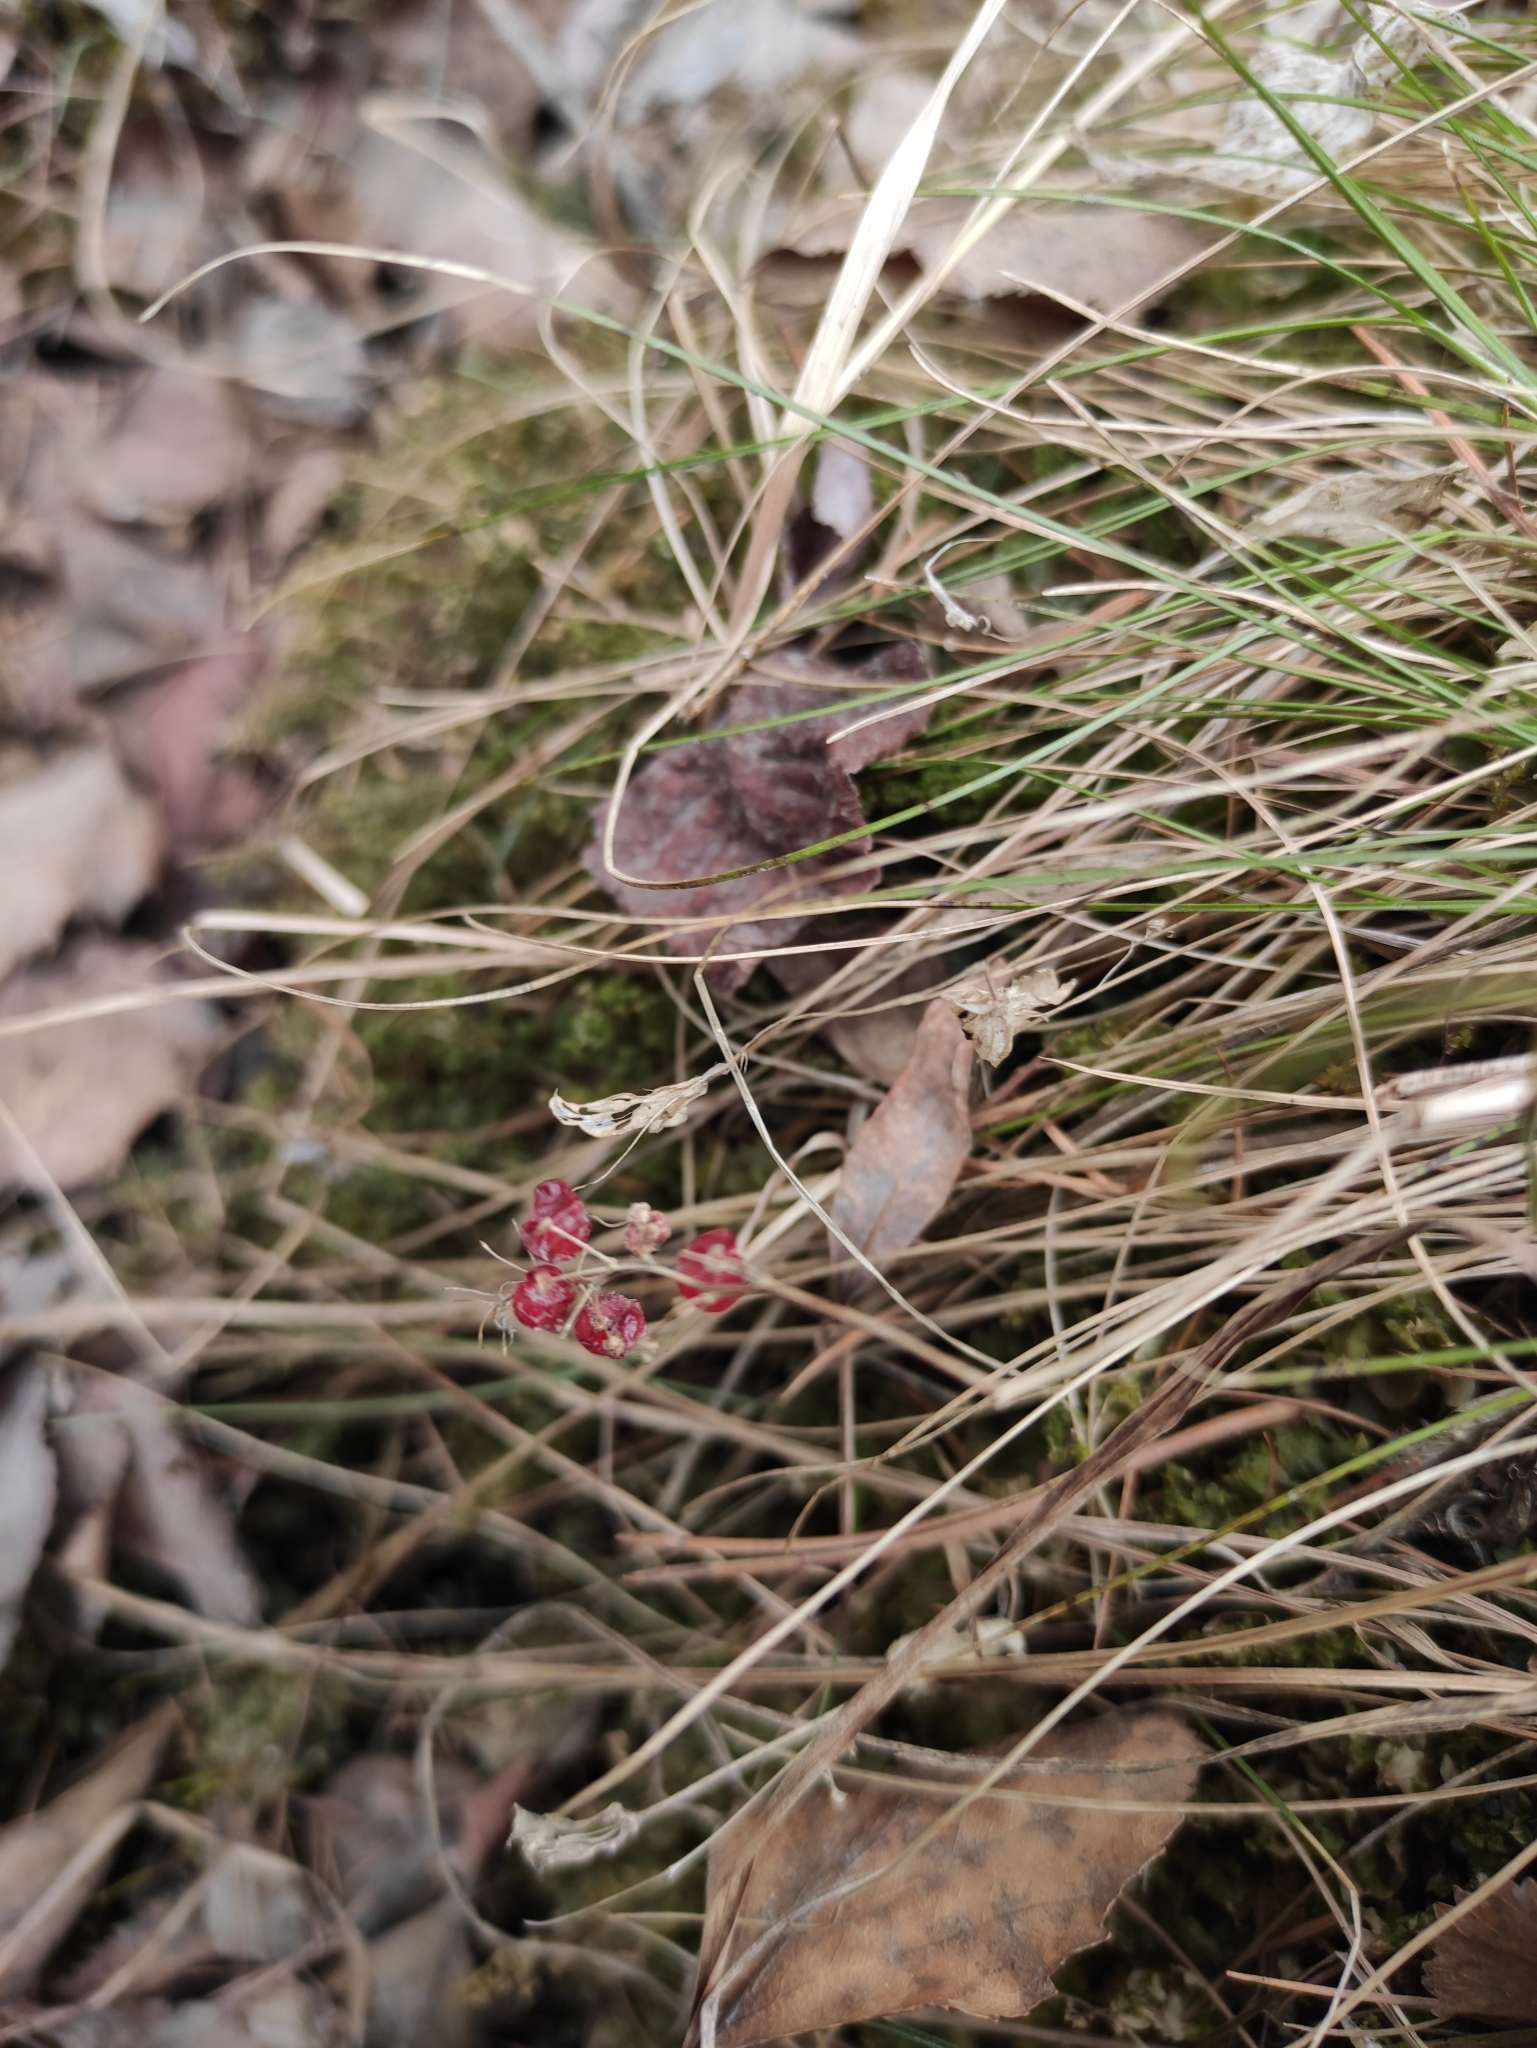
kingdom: Plantae
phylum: Tracheophyta
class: Liliopsida
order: Asparagales
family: Asparagaceae
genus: Maianthemum
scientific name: Maianthemum bifolium
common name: May lily
